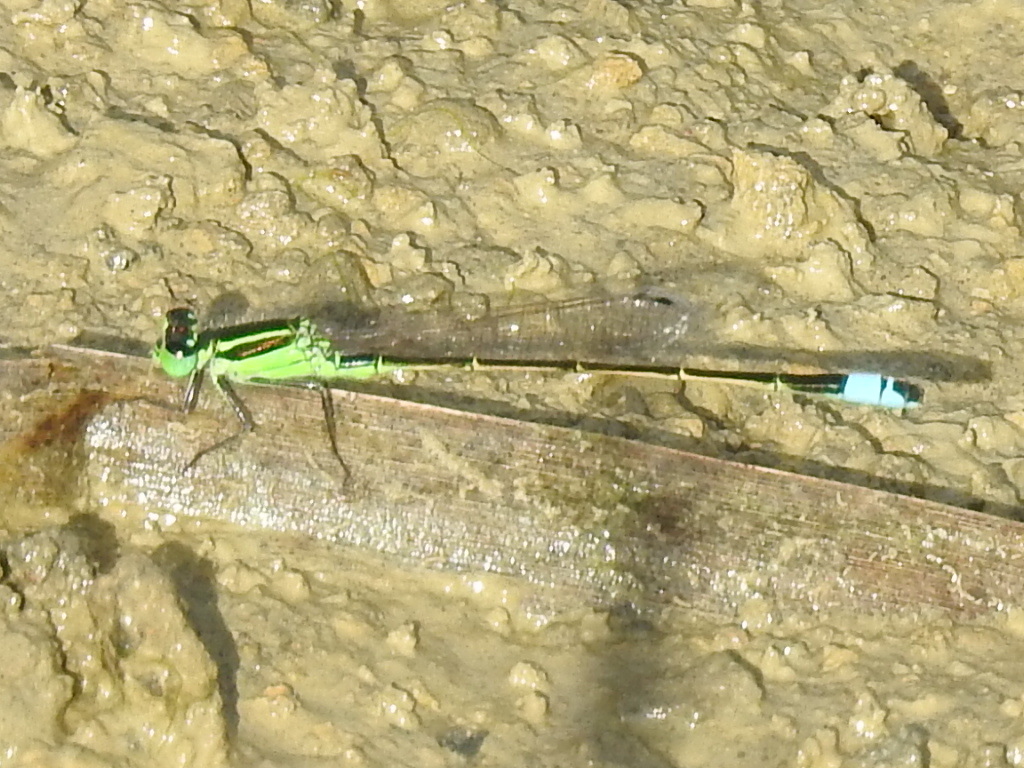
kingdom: Animalia
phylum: Arthropoda
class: Insecta
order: Odonata
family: Coenagrionidae
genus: Ischnura
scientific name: Ischnura ramburii
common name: Rambur's forktail
